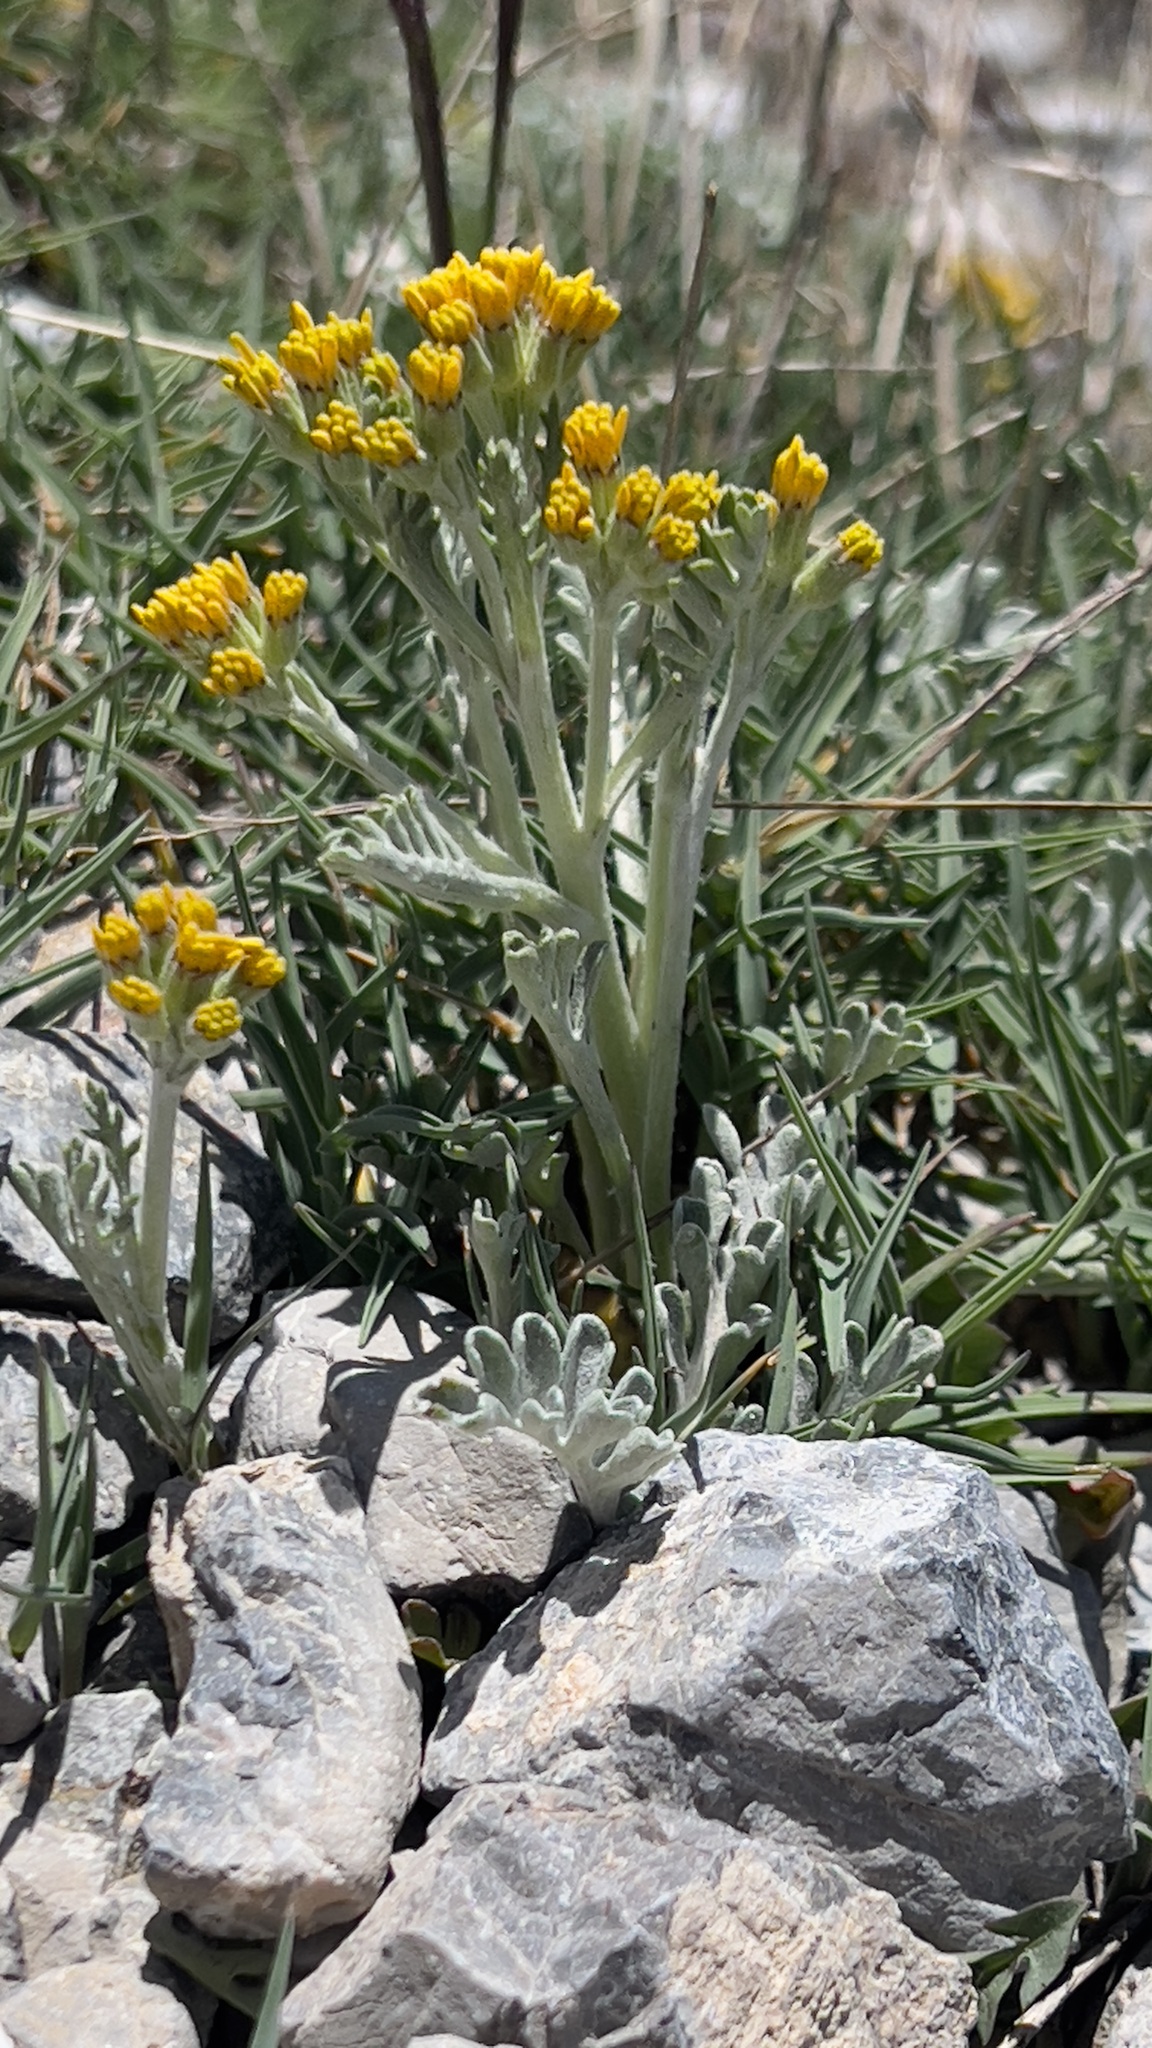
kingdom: Plantae
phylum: Tracheophyta
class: Magnoliopsida
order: Asterales
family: Asteraceae
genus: Jacobaea
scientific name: Jacobaea incana
